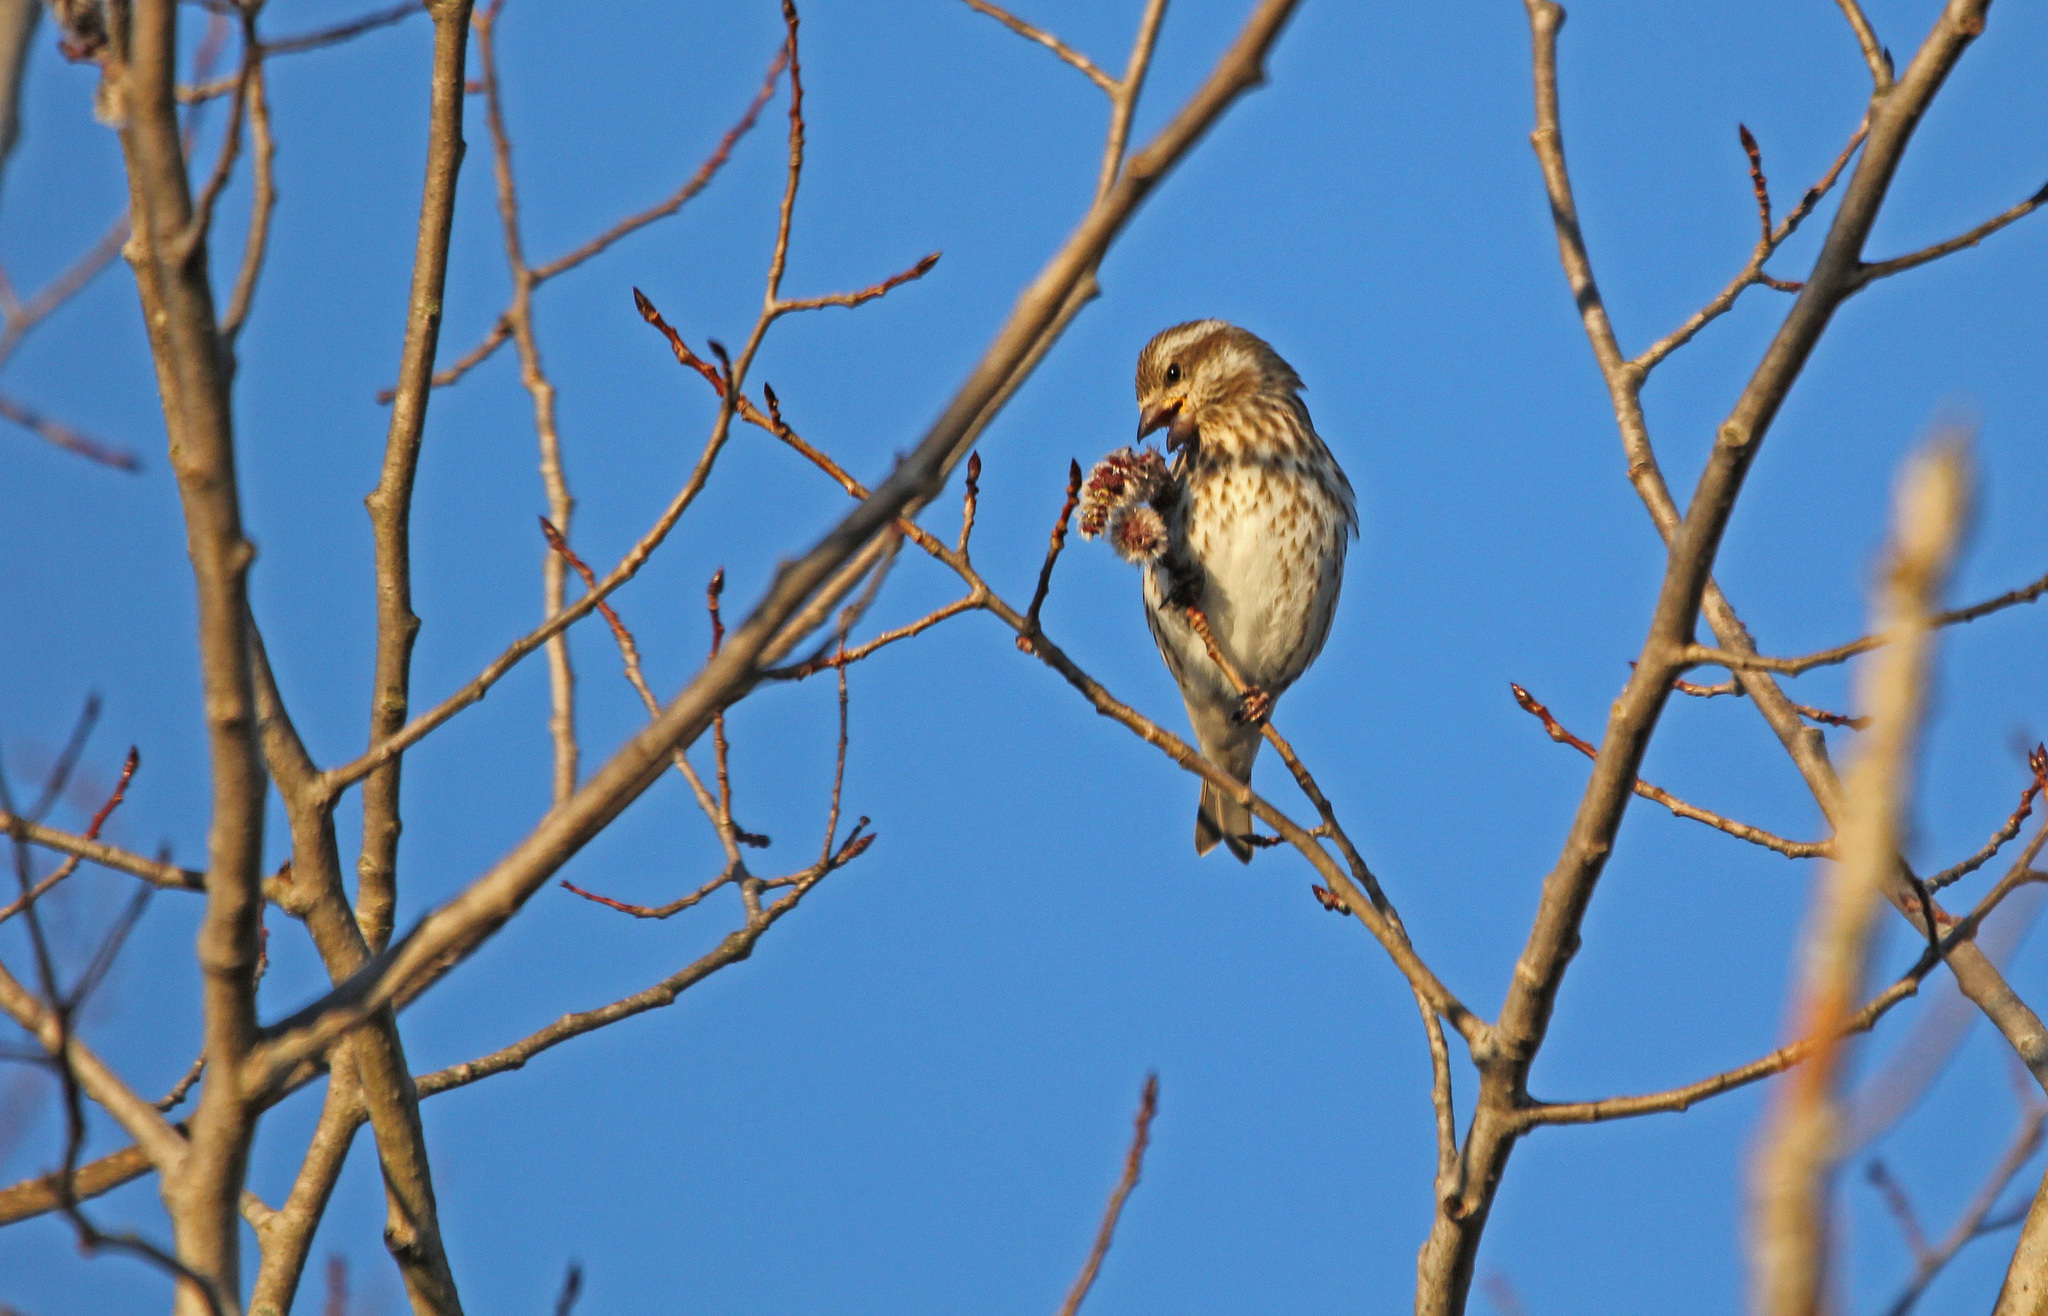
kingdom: Animalia
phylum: Chordata
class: Aves
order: Passeriformes
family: Fringillidae
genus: Haemorhous
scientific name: Haemorhous purpureus
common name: Purple finch
